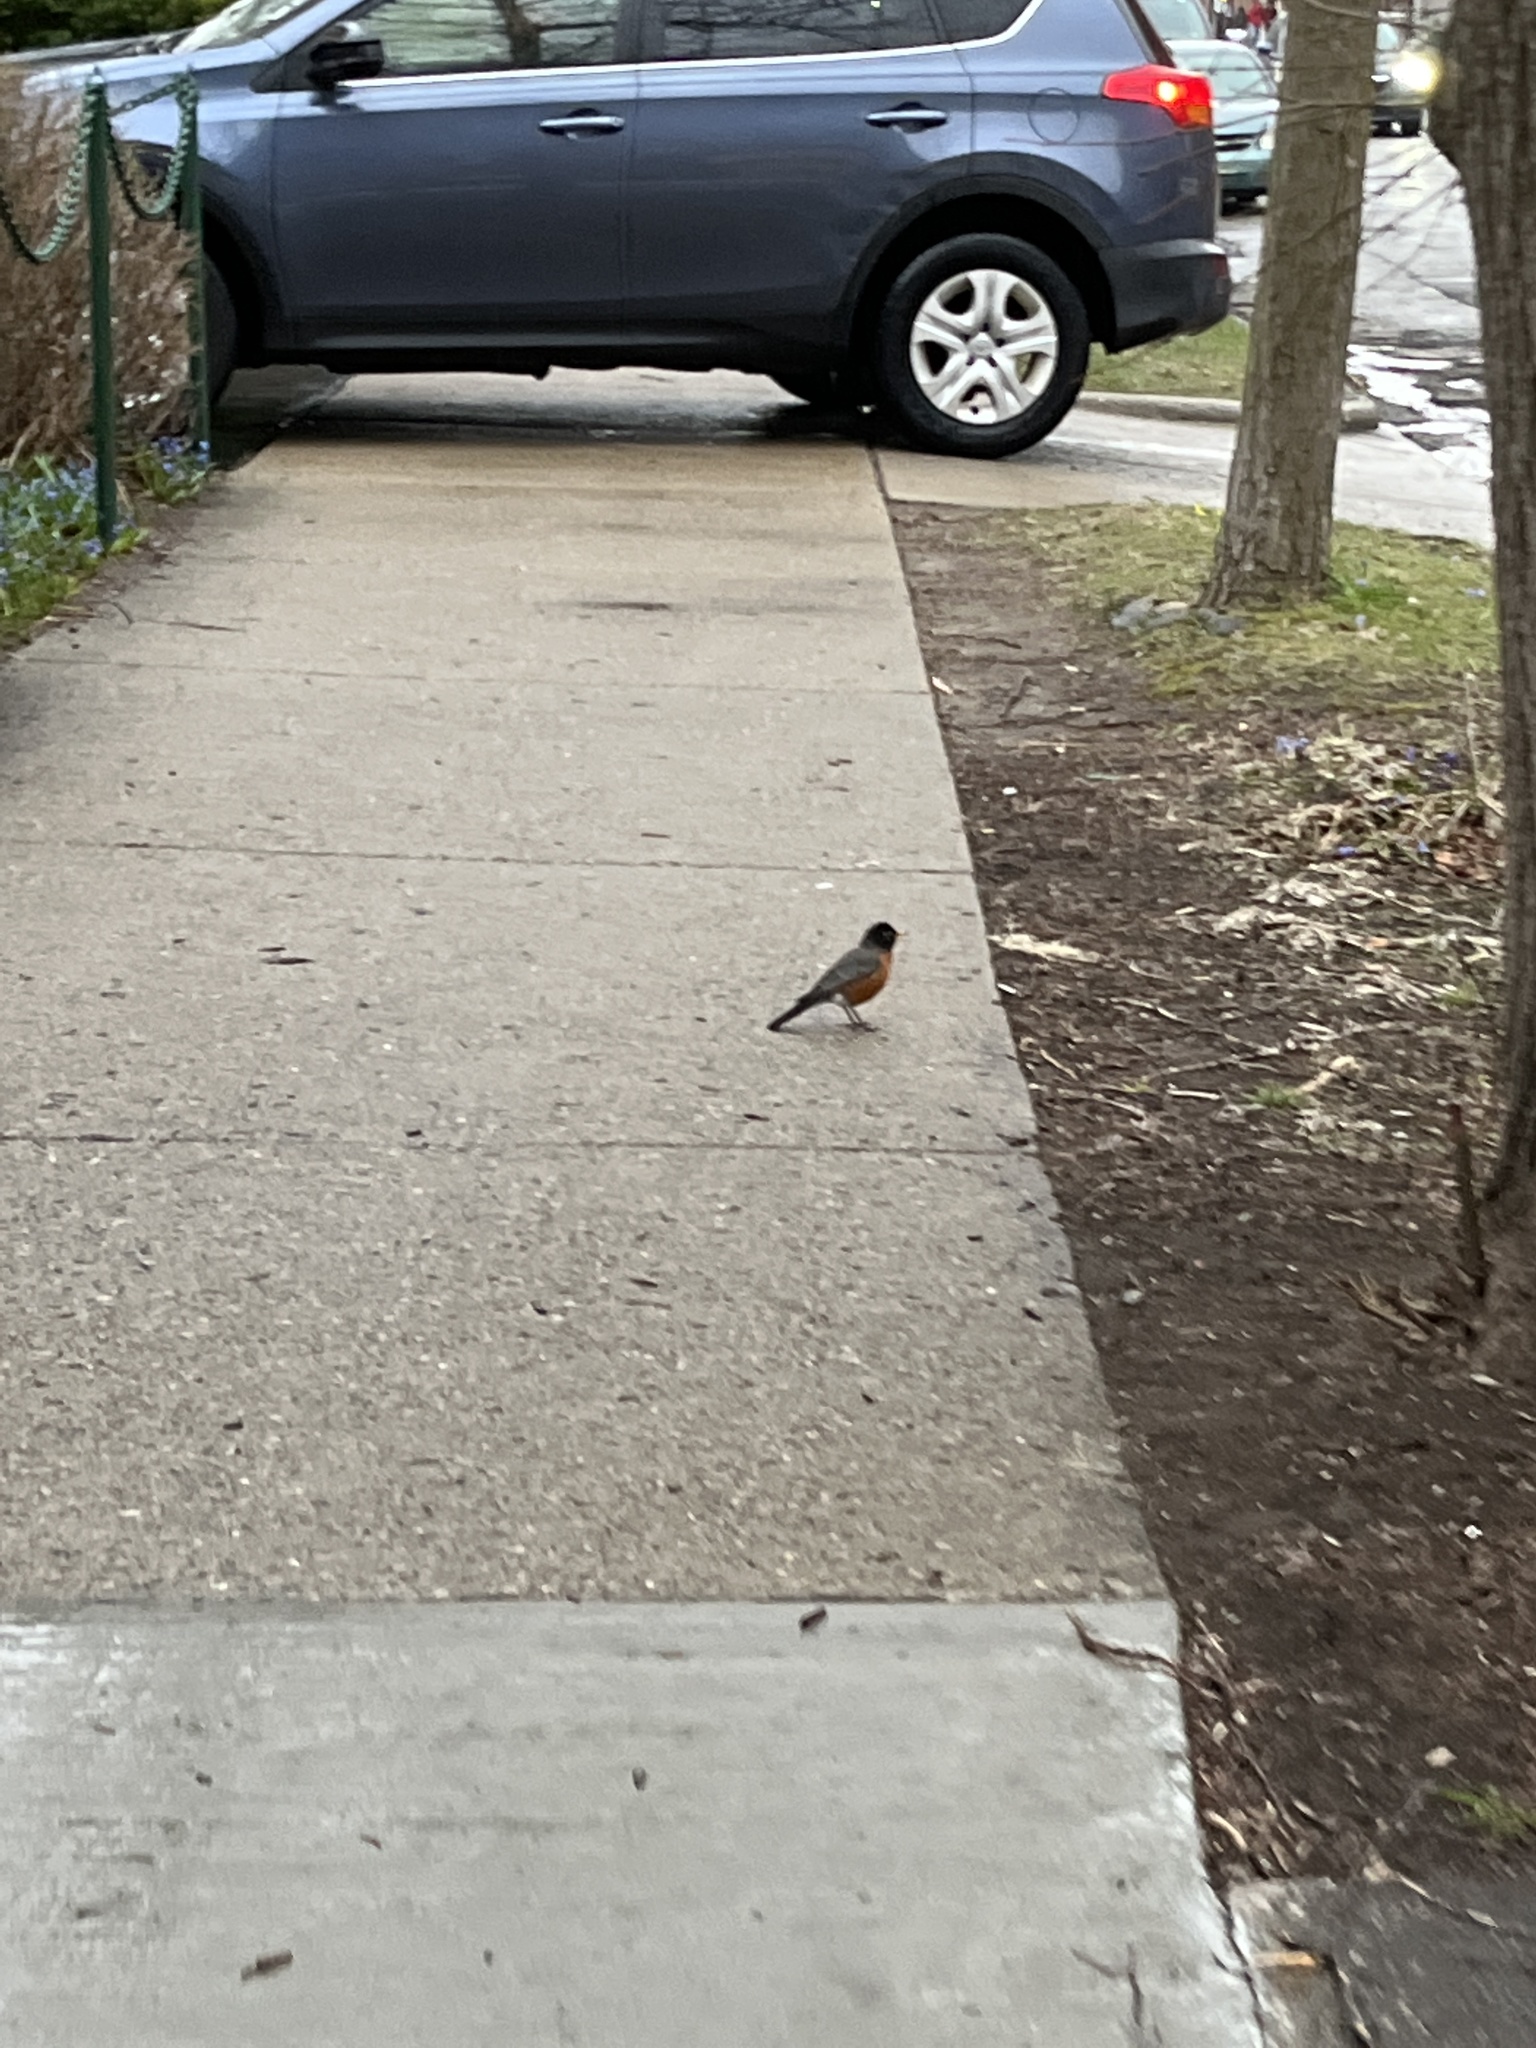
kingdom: Animalia
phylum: Chordata
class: Aves
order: Passeriformes
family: Turdidae
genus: Turdus
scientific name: Turdus migratorius
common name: American robin
